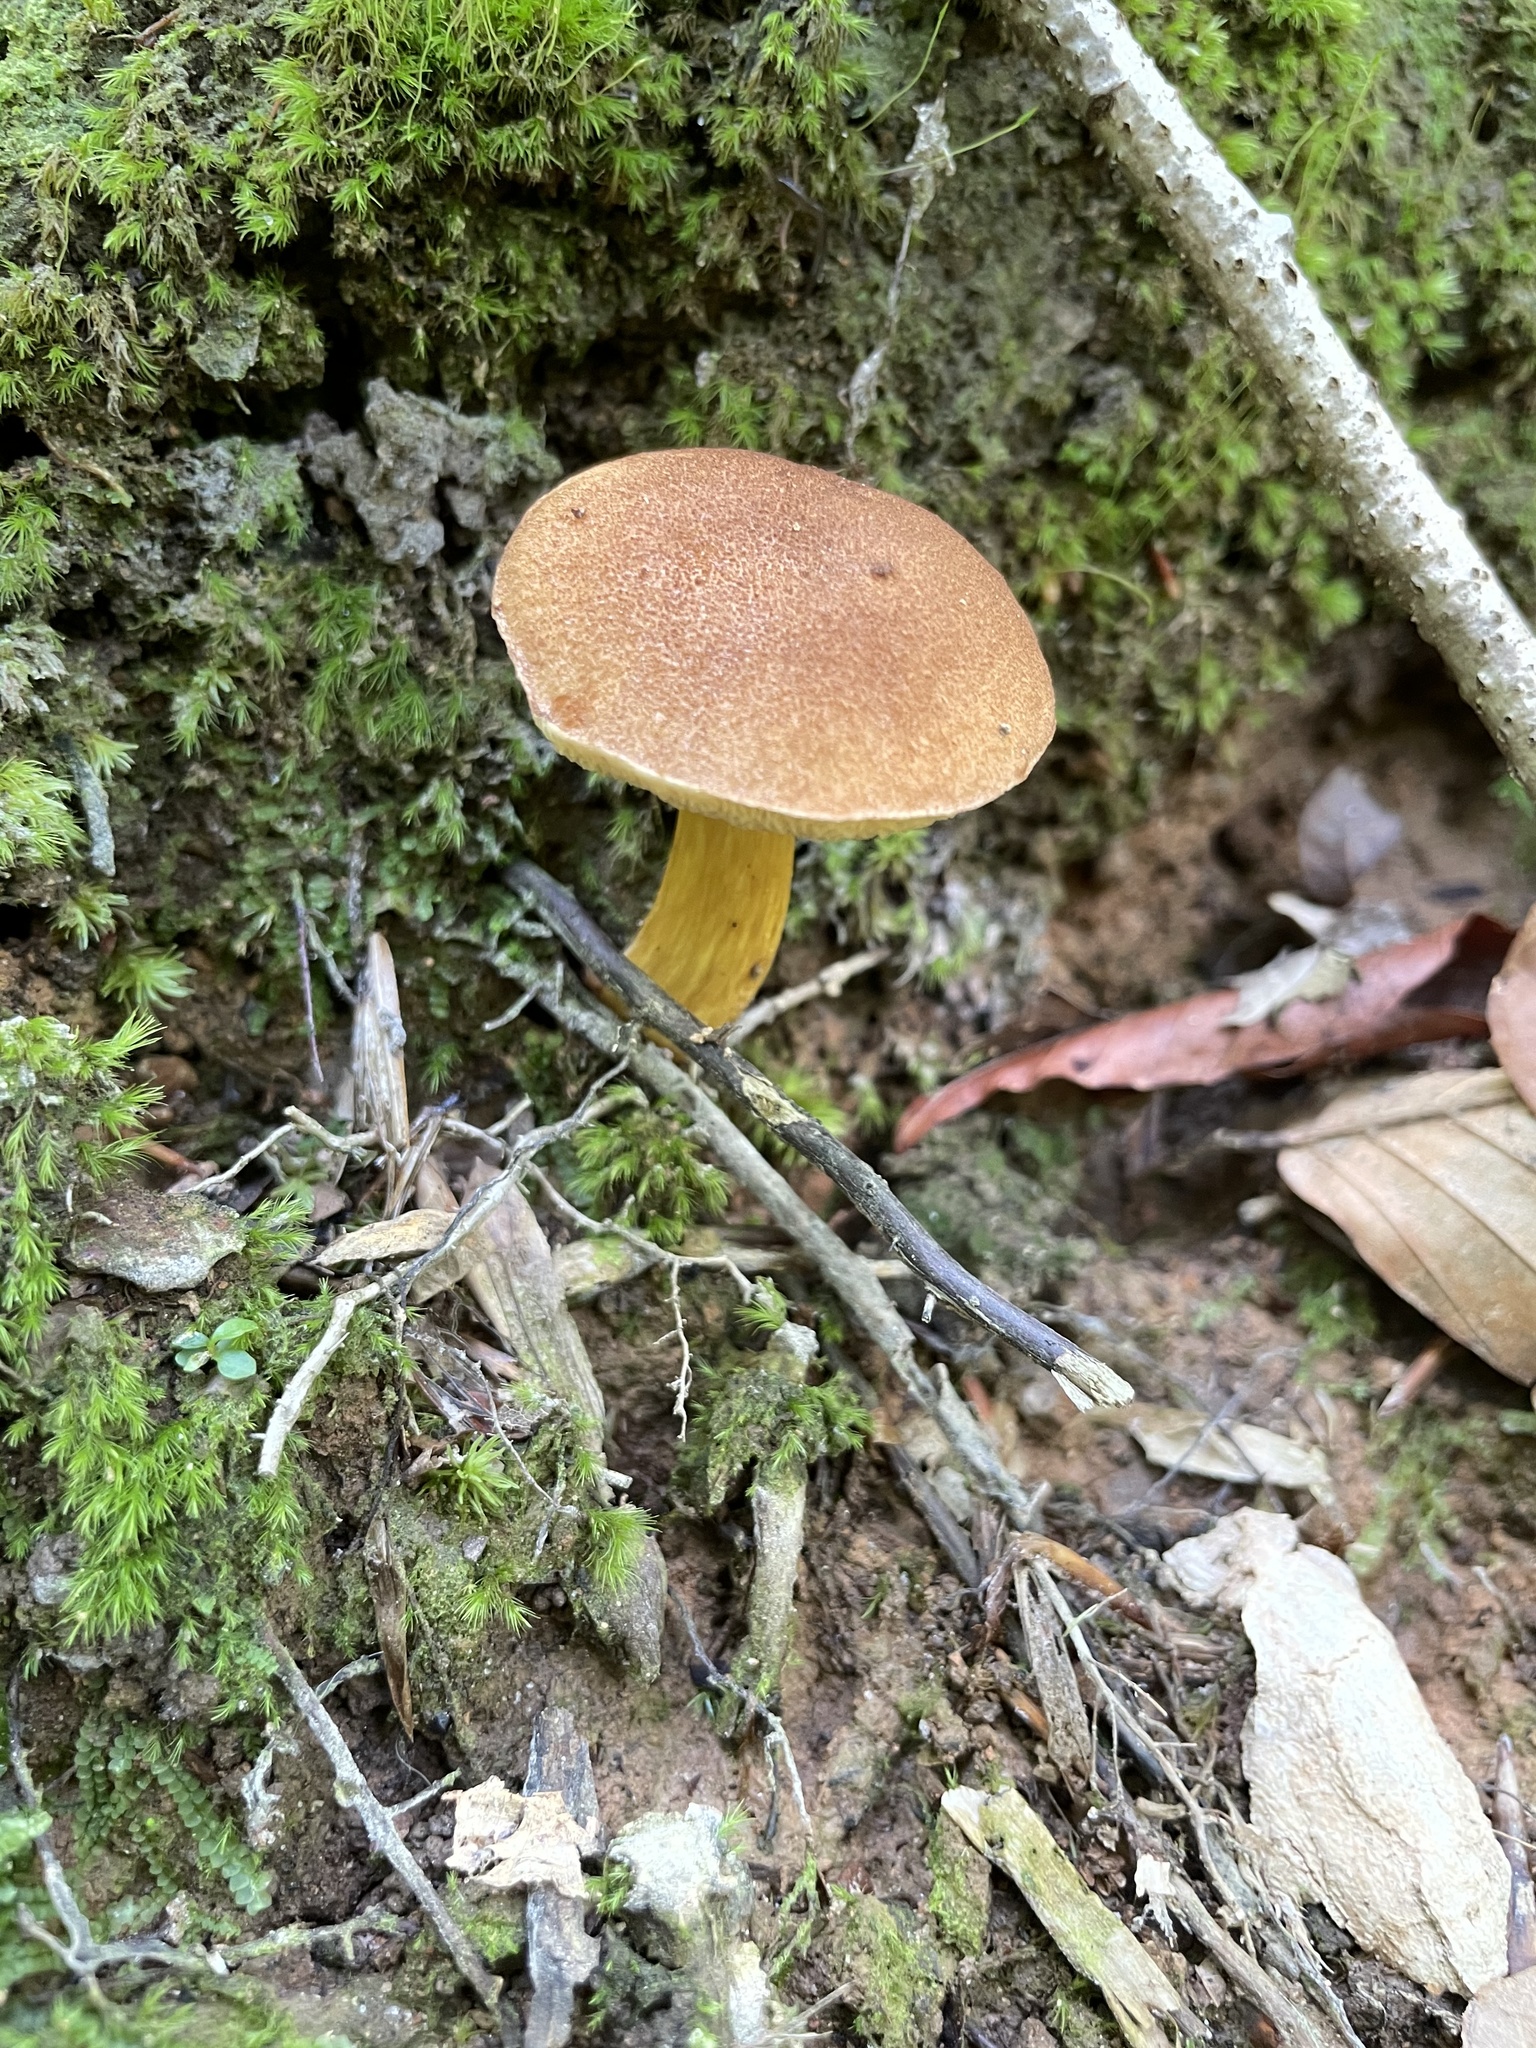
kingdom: Fungi
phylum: Basidiomycota
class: Agaricomycetes
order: Boletales
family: Boletaceae
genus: Aureoboletus
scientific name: Aureoboletus roxanae
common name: Roxane's bolete
